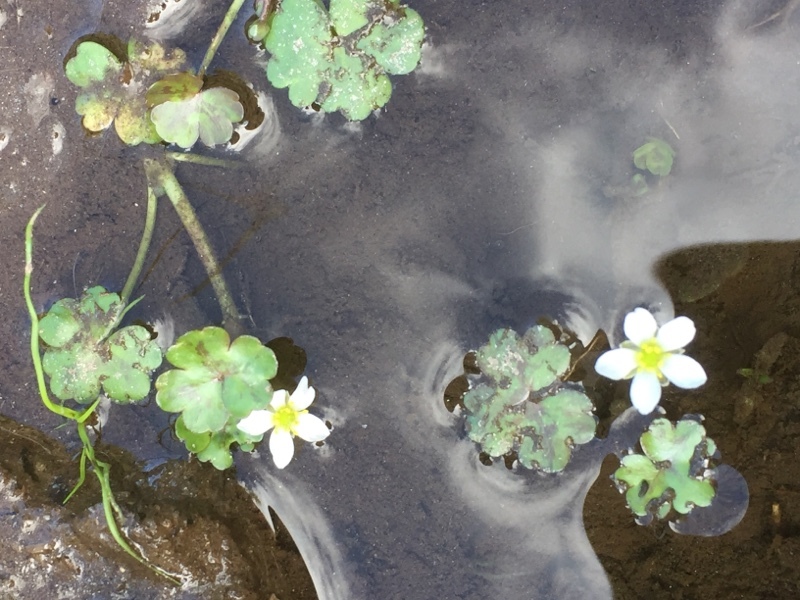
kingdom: Plantae
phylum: Tracheophyta
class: Magnoliopsida
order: Ranunculales
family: Ranunculaceae
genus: Ranunculus
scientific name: Ranunculus omiophyllus
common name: Round-leaved crowfoot
